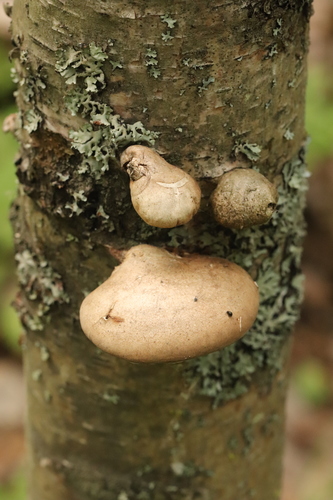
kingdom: Fungi
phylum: Basidiomycota
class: Agaricomycetes
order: Polyporales
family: Fomitopsidaceae
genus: Fomitopsis
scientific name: Fomitopsis betulina
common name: Birch polypore
